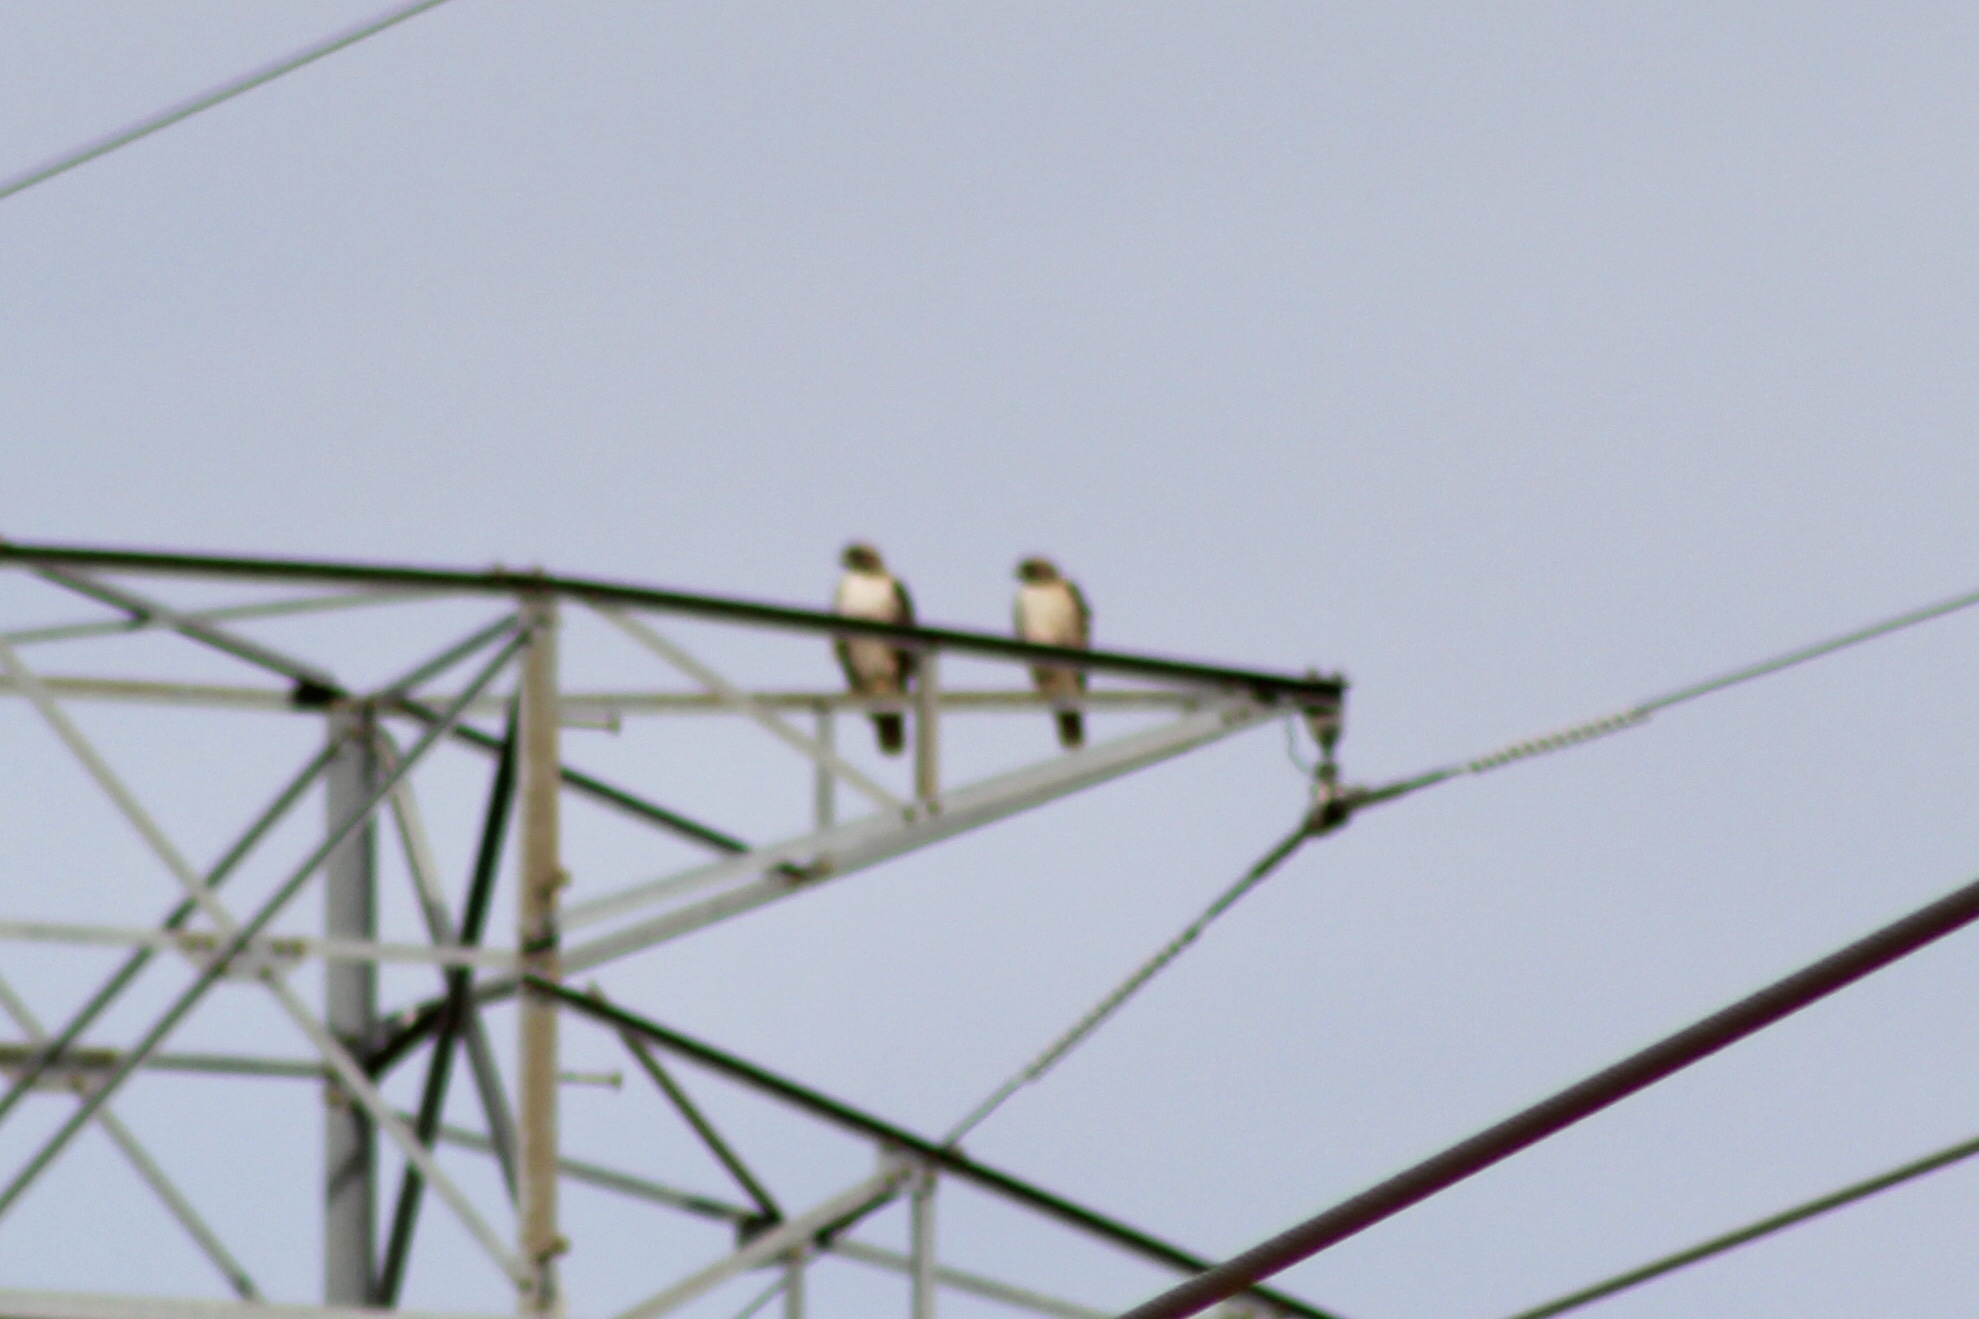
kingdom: Animalia
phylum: Chordata
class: Aves
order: Accipitriformes
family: Accipitridae
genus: Buteo
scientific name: Buteo jamaicensis
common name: Red-tailed hawk
